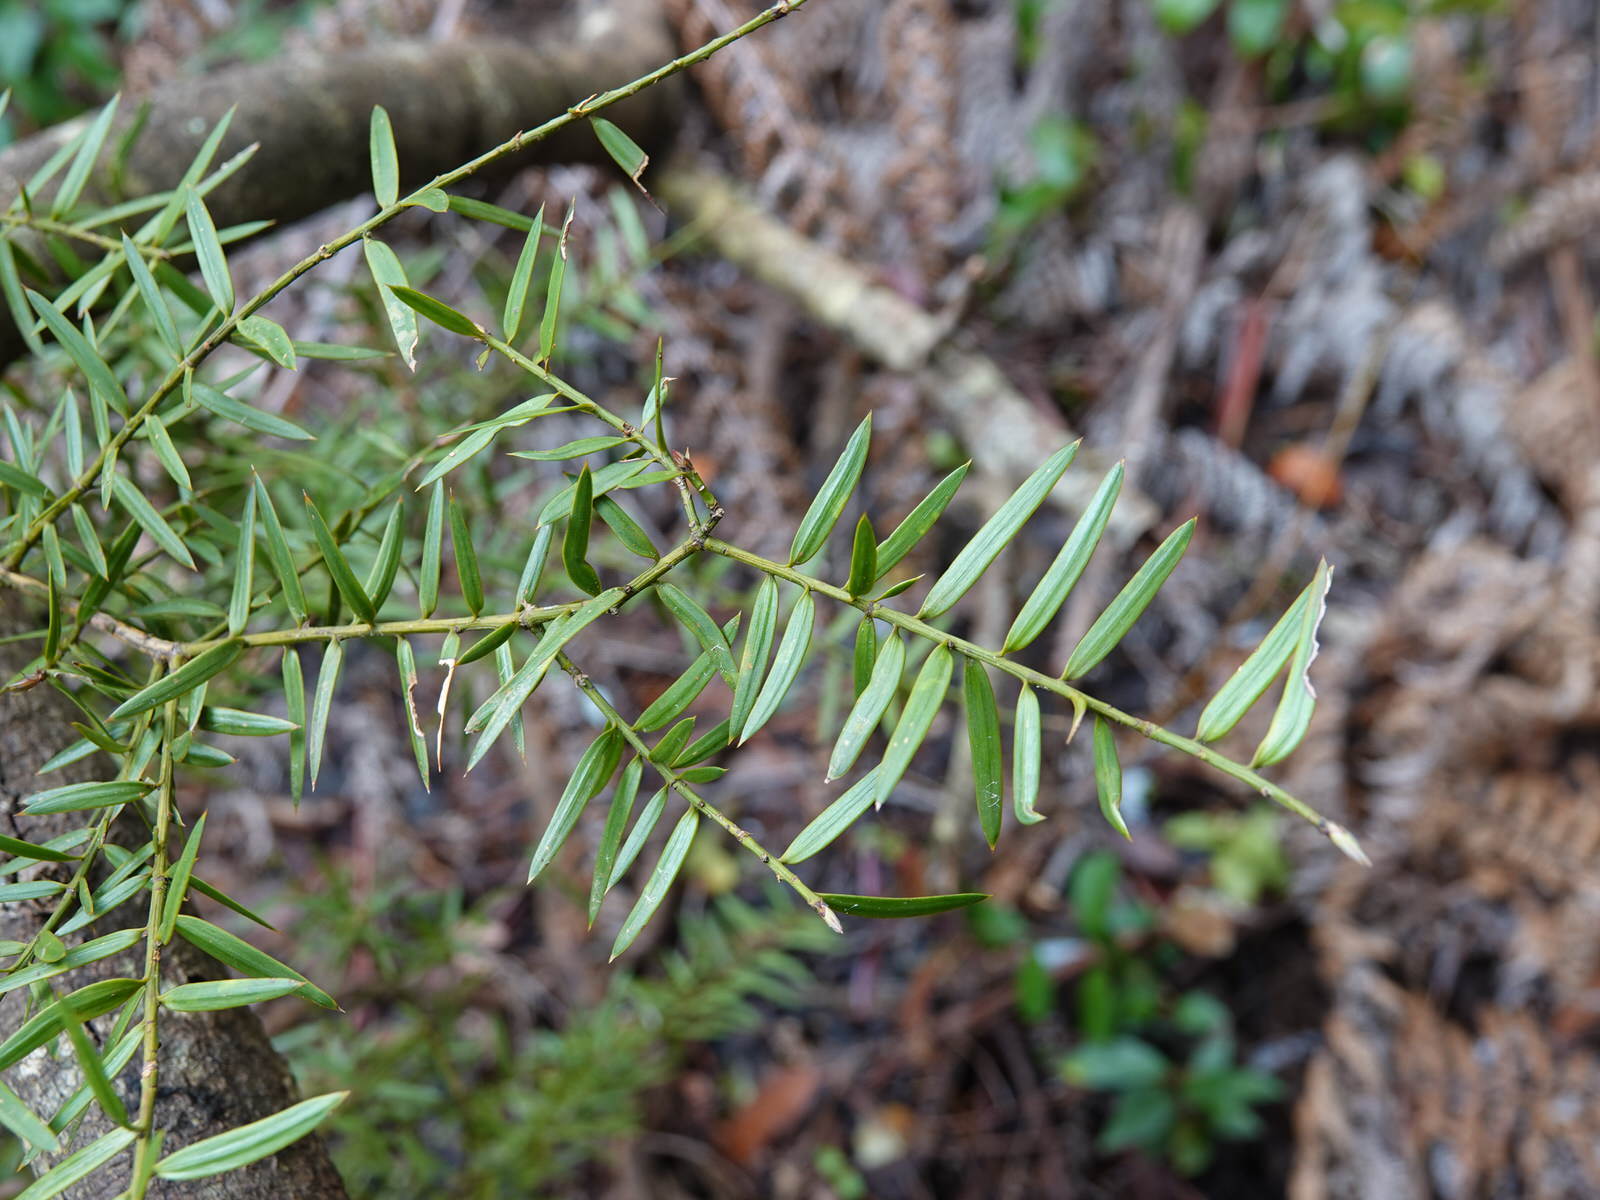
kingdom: Plantae
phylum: Tracheophyta
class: Pinopsida
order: Pinales
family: Podocarpaceae
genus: Podocarpus
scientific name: Podocarpus totara
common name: Totara
